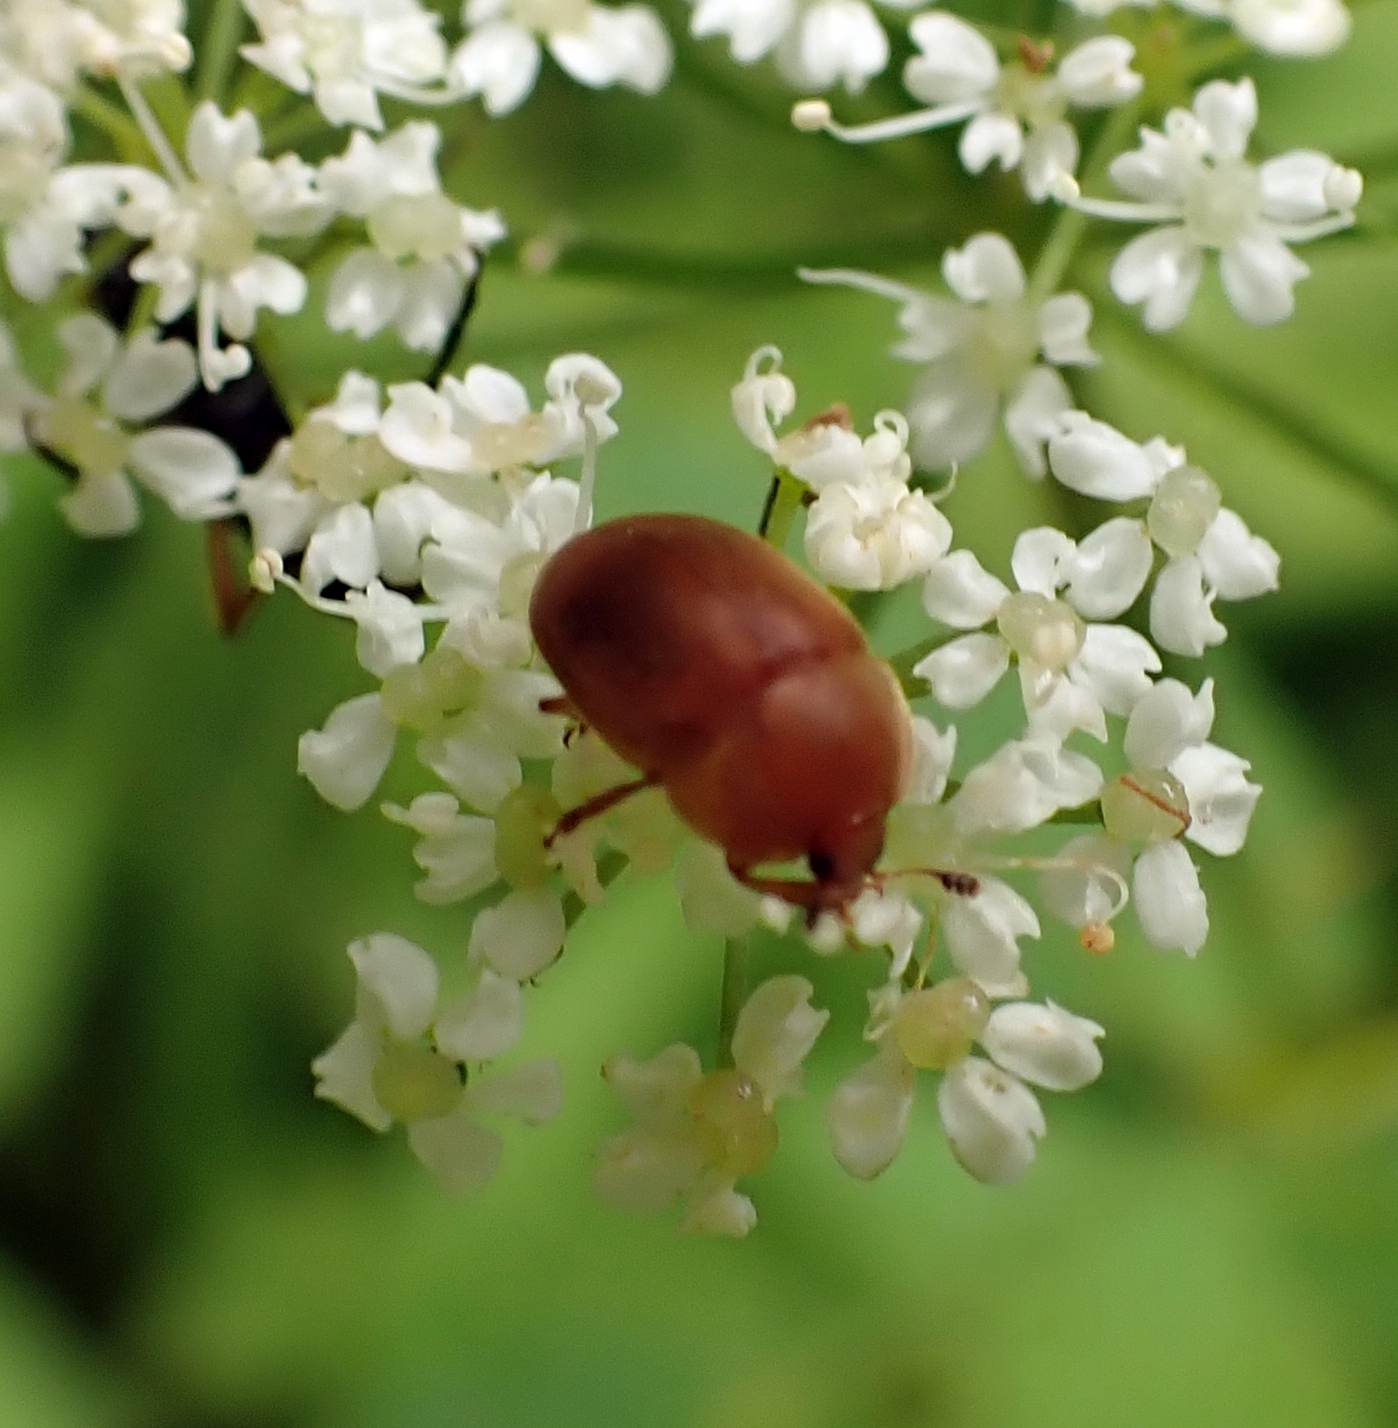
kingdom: Animalia
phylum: Arthropoda
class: Insecta
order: Coleoptera
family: Nitidulidae
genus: Cychramus
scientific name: Cychramus luteus
